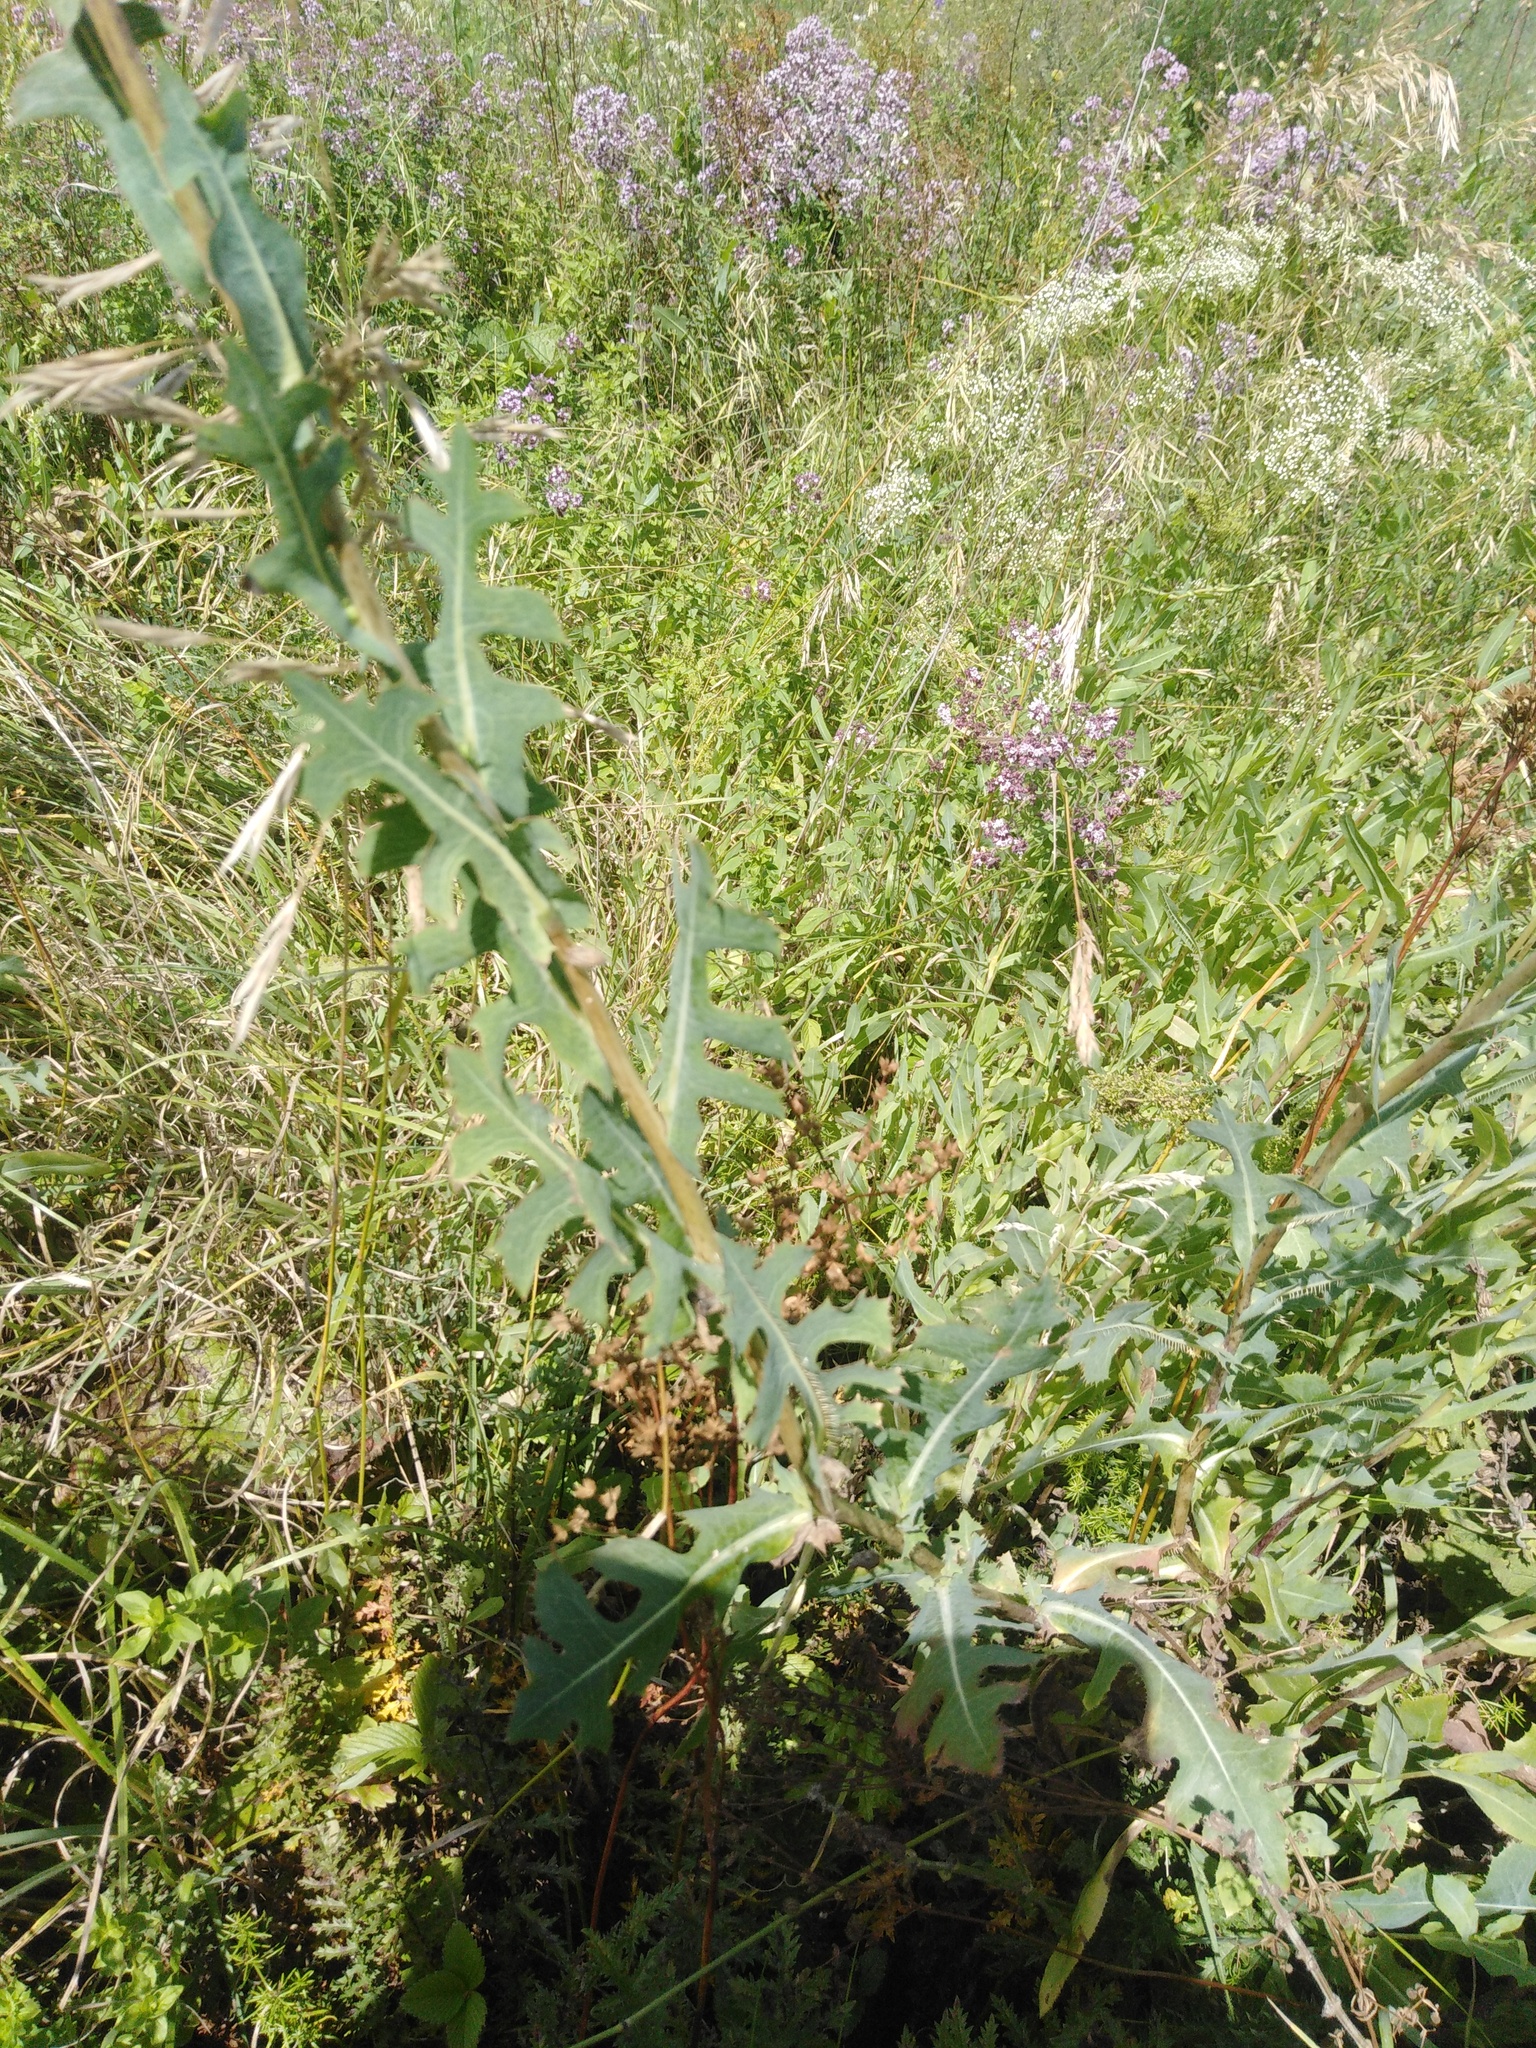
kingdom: Plantae
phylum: Tracheophyta
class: Magnoliopsida
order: Asterales
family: Asteraceae
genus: Lactuca
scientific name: Lactuca serriola
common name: Prickly lettuce
